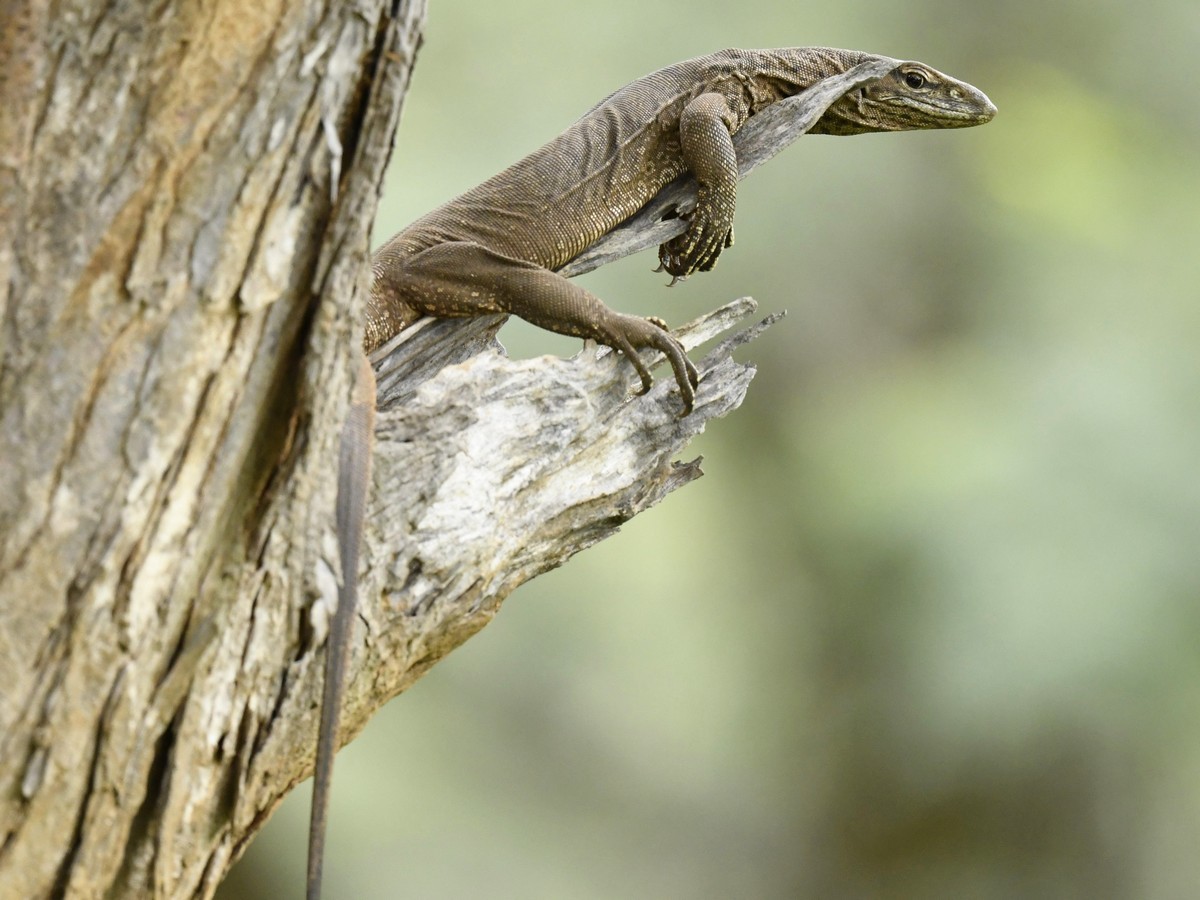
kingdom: Animalia
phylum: Chordata
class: Squamata
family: Varanidae
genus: Varanus
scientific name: Varanus bengalensis
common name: Bengal monitor
